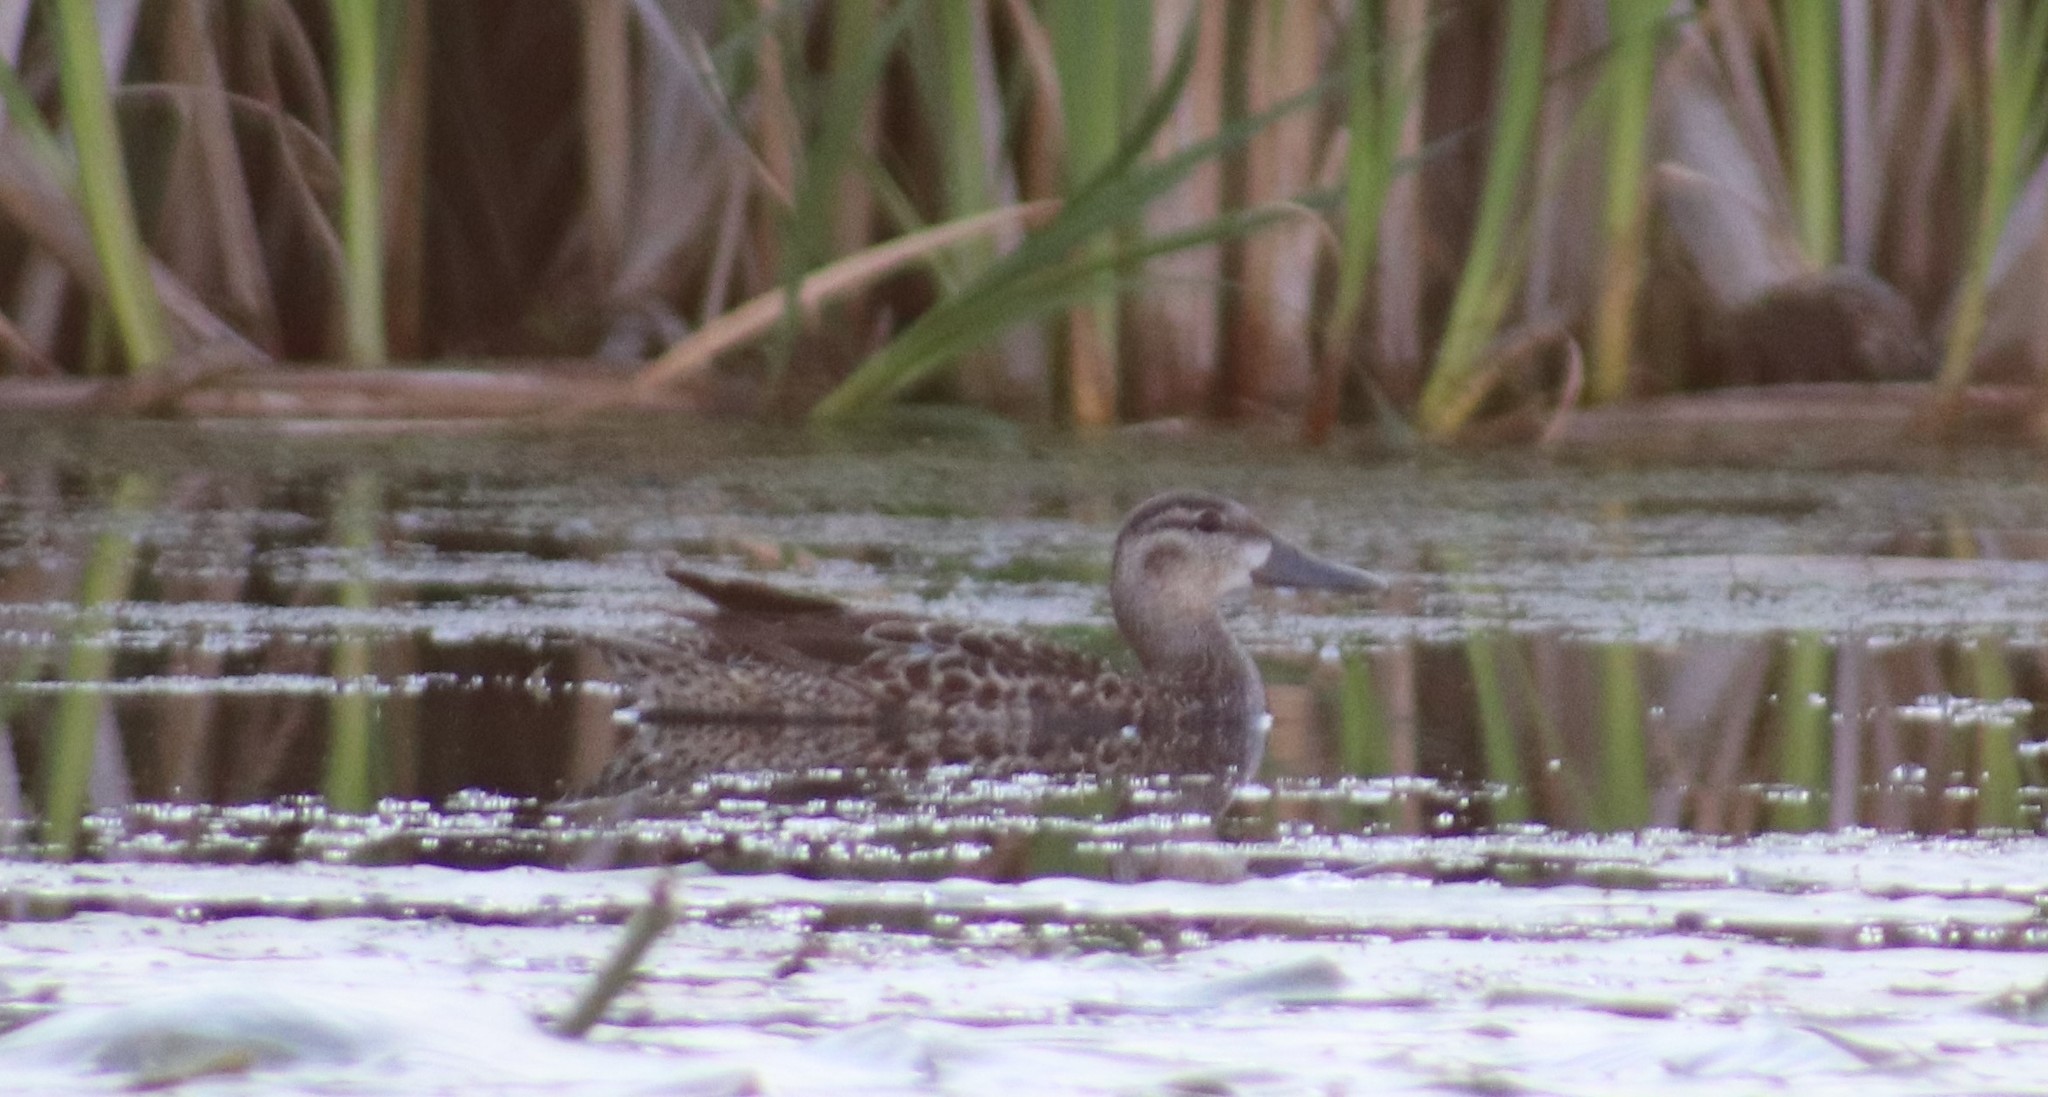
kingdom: Animalia
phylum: Chordata
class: Aves
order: Anseriformes
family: Anatidae
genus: Spatula
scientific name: Spatula discors
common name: Blue-winged teal
